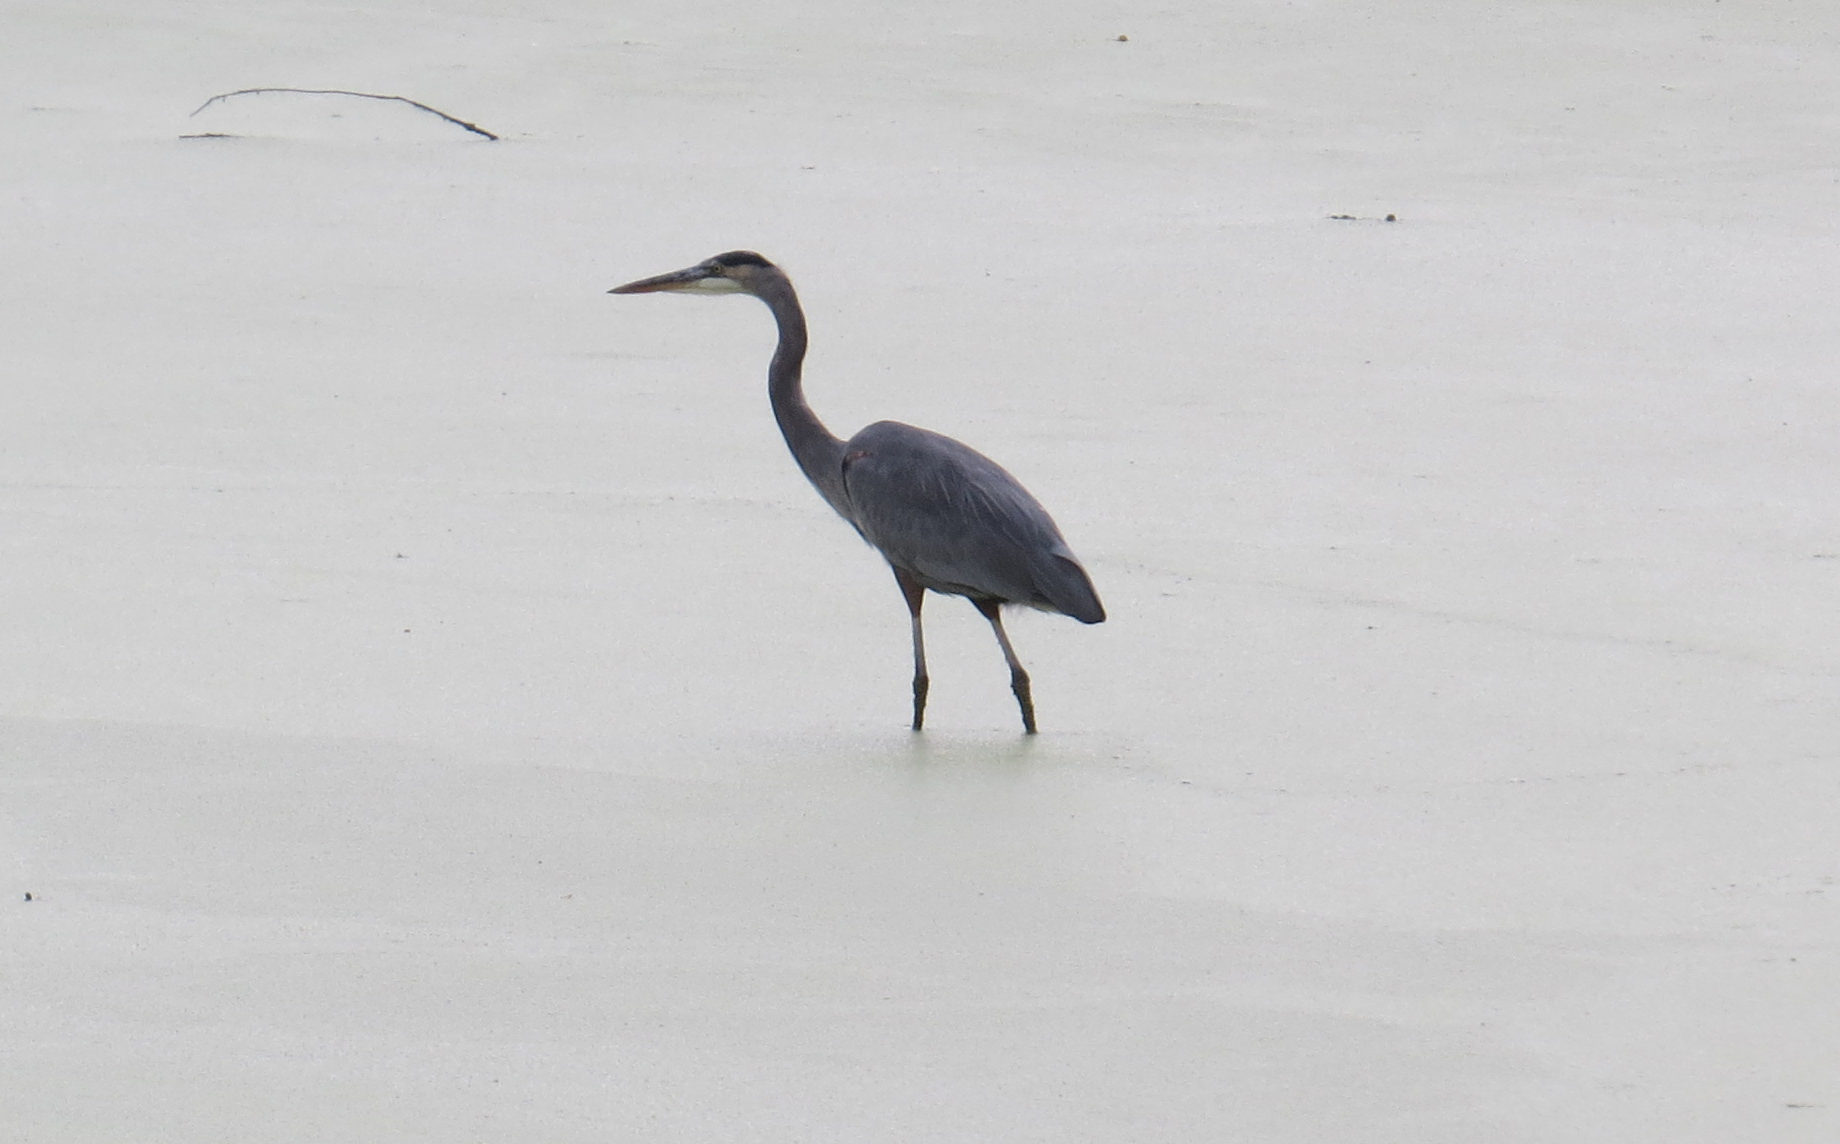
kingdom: Animalia
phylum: Chordata
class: Aves
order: Pelecaniformes
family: Ardeidae
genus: Ardea
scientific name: Ardea herodias
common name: Great blue heron
